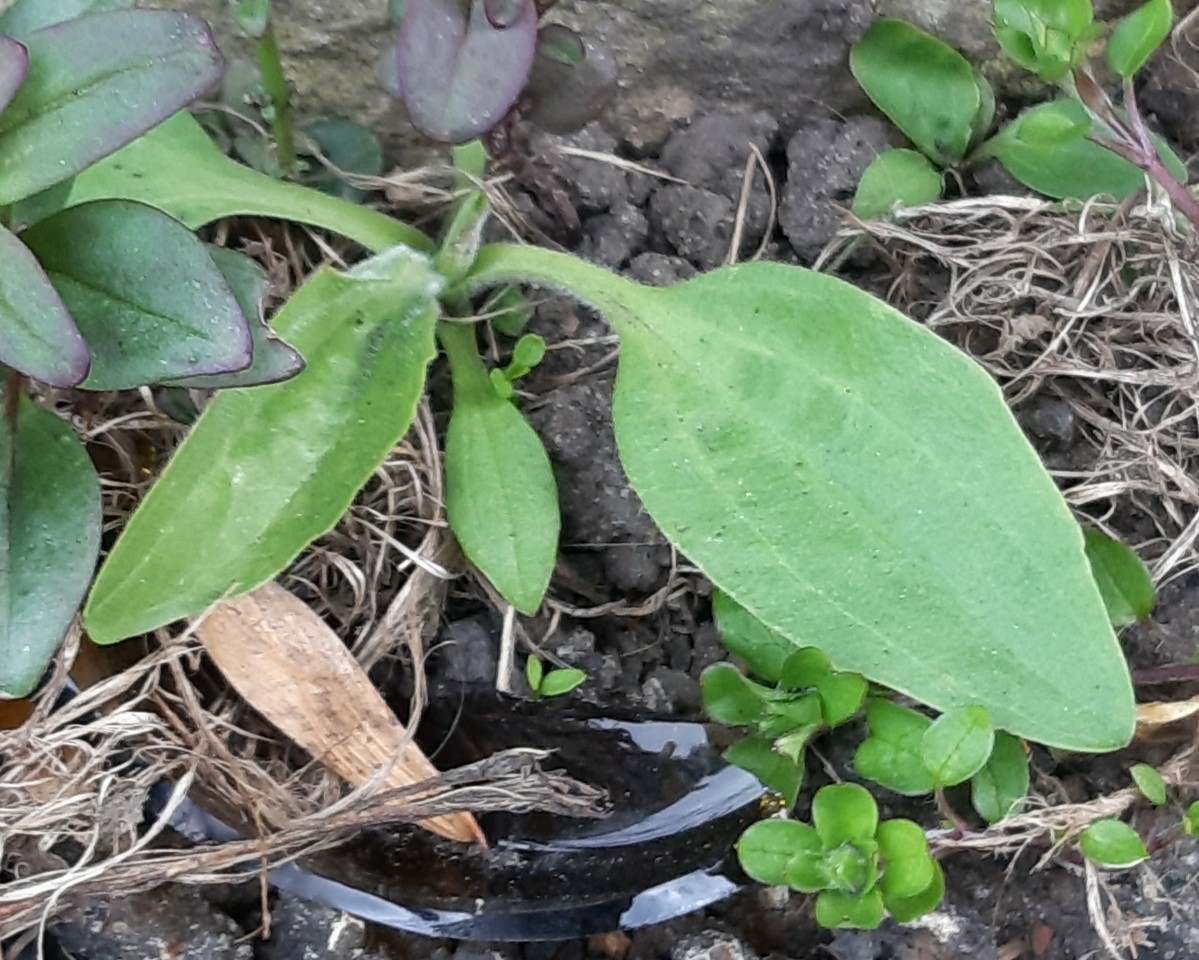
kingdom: Plantae
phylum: Tracheophyta
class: Magnoliopsida
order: Lamiales
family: Plantaginaceae
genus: Plantago
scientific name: Plantago major
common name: Common plantain
